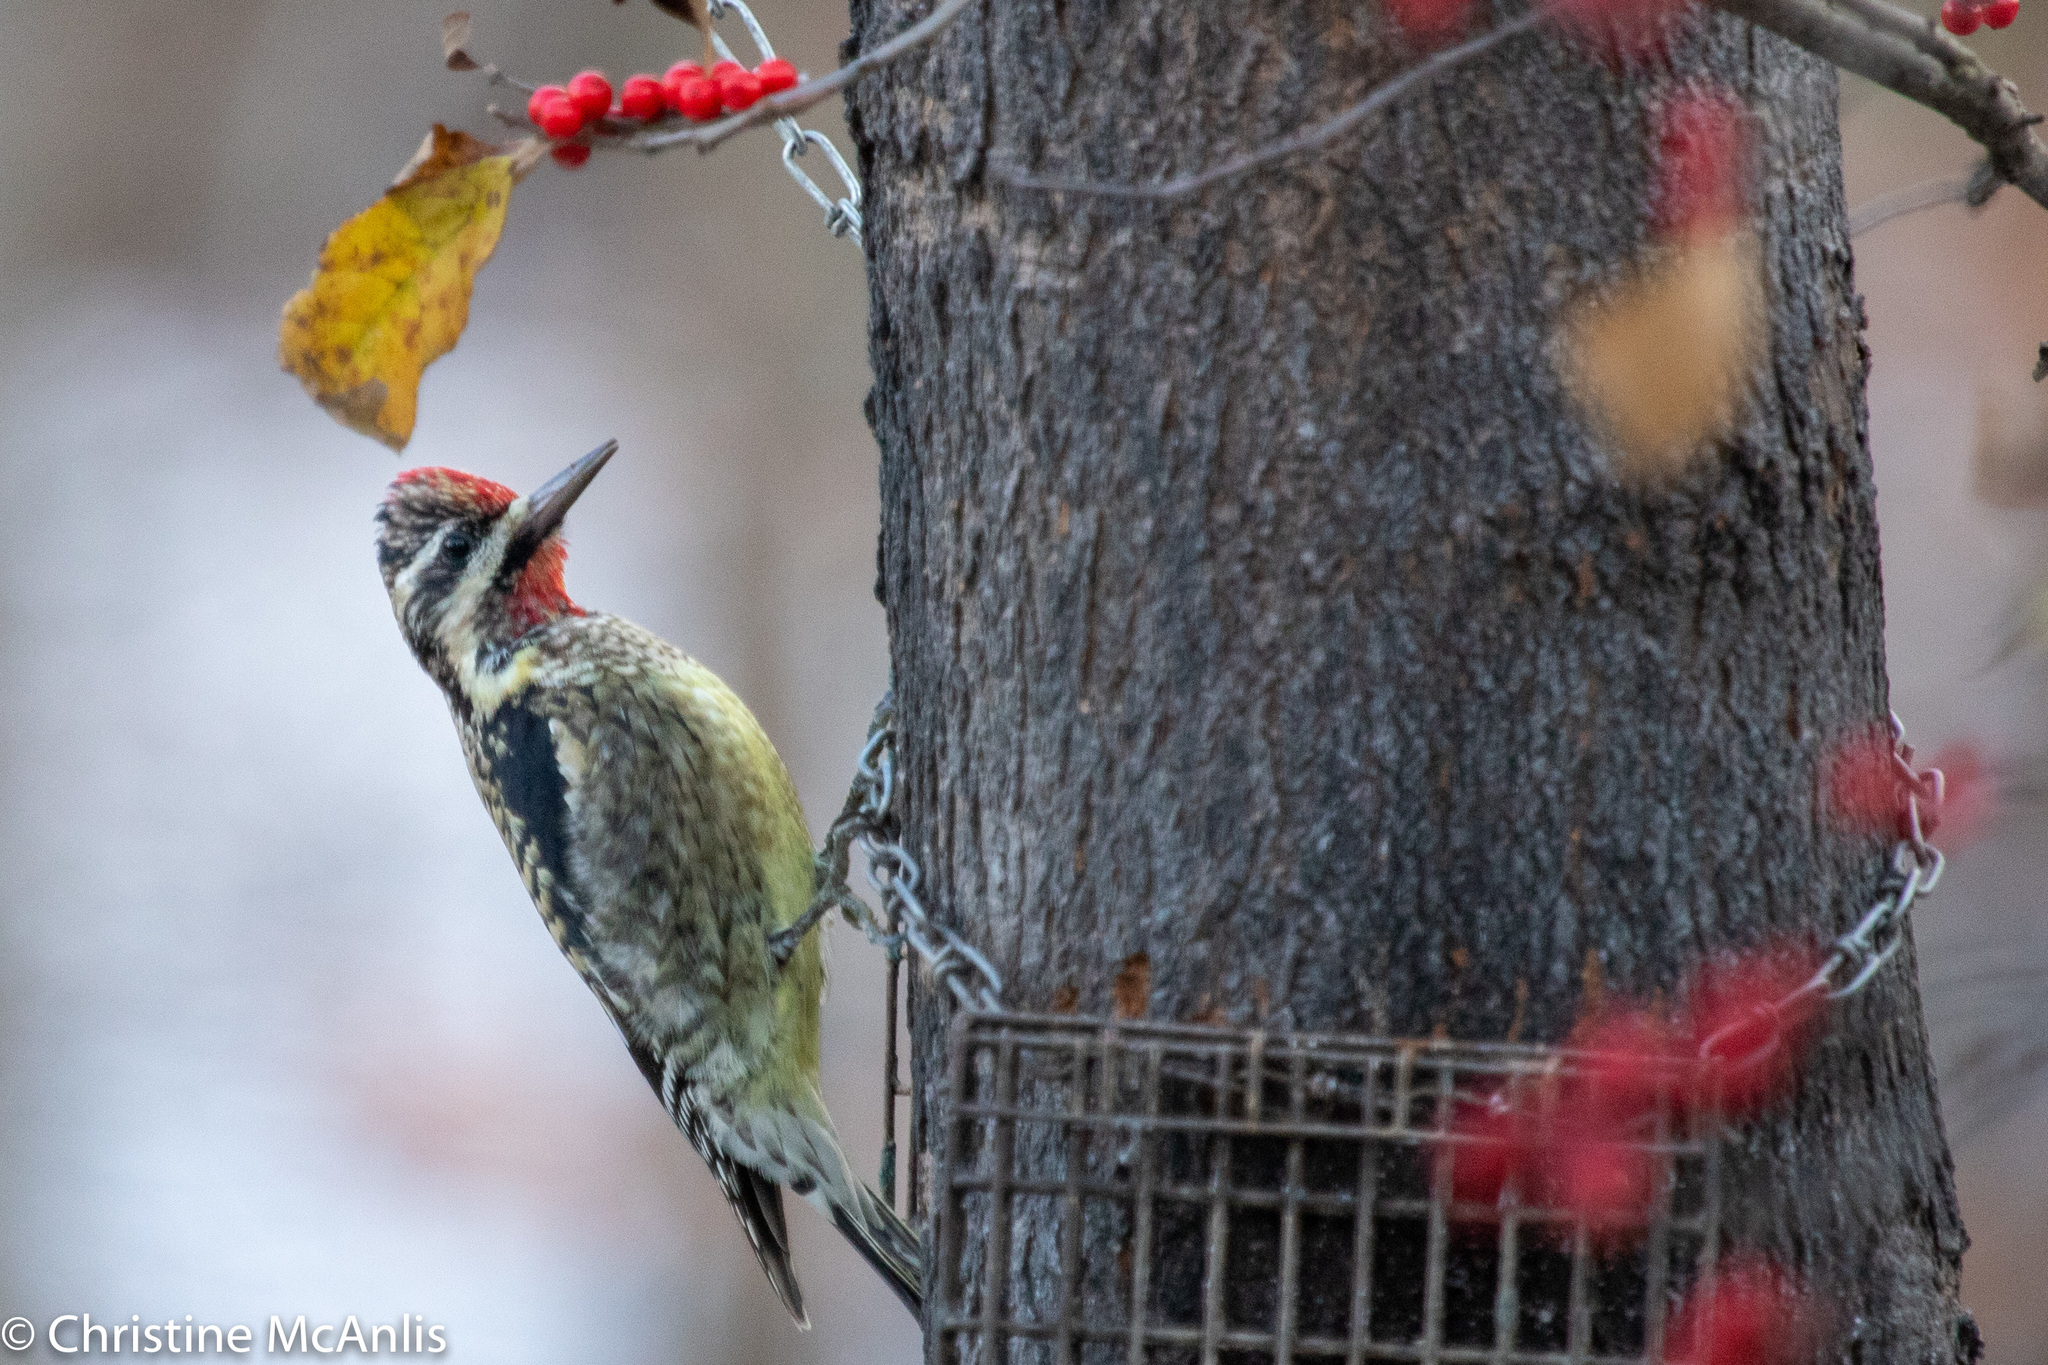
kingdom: Animalia
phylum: Chordata
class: Aves
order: Piciformes
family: Picidae
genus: Sphyrapicus
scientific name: Sphyrapicus varius
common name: Yellow-bellied sapsucker
